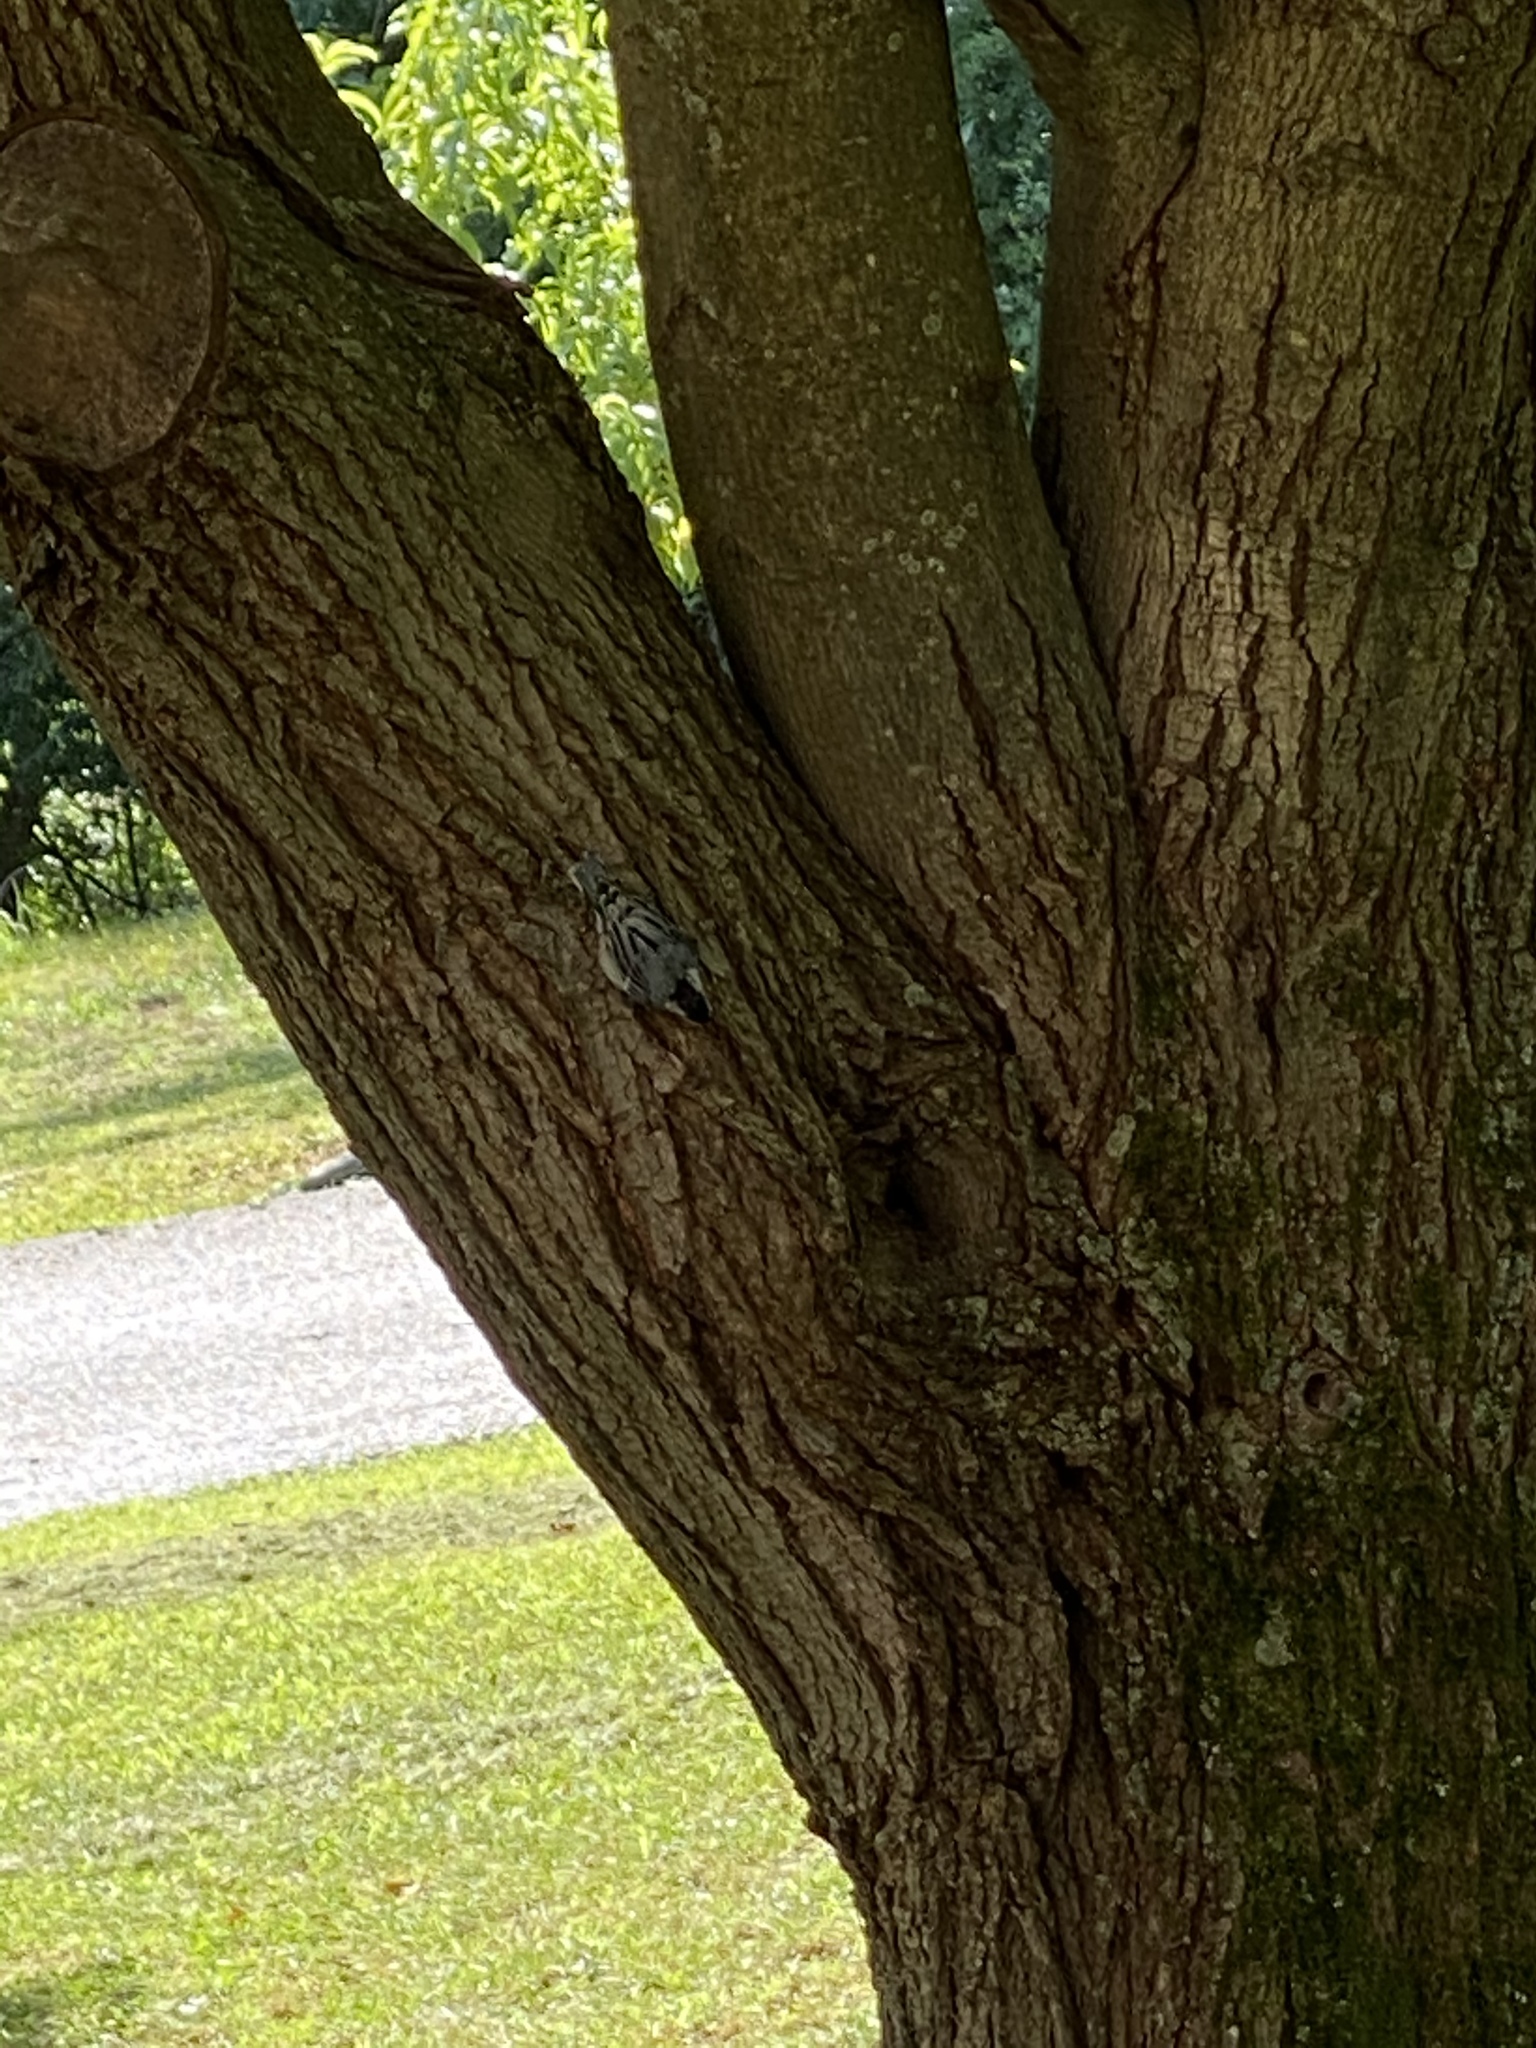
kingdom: Animalia
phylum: Chordata
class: Aves
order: Passeriformes
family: Sittidae
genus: Sitta
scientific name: Sitta carolinensis
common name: White-breasted nuthatch
